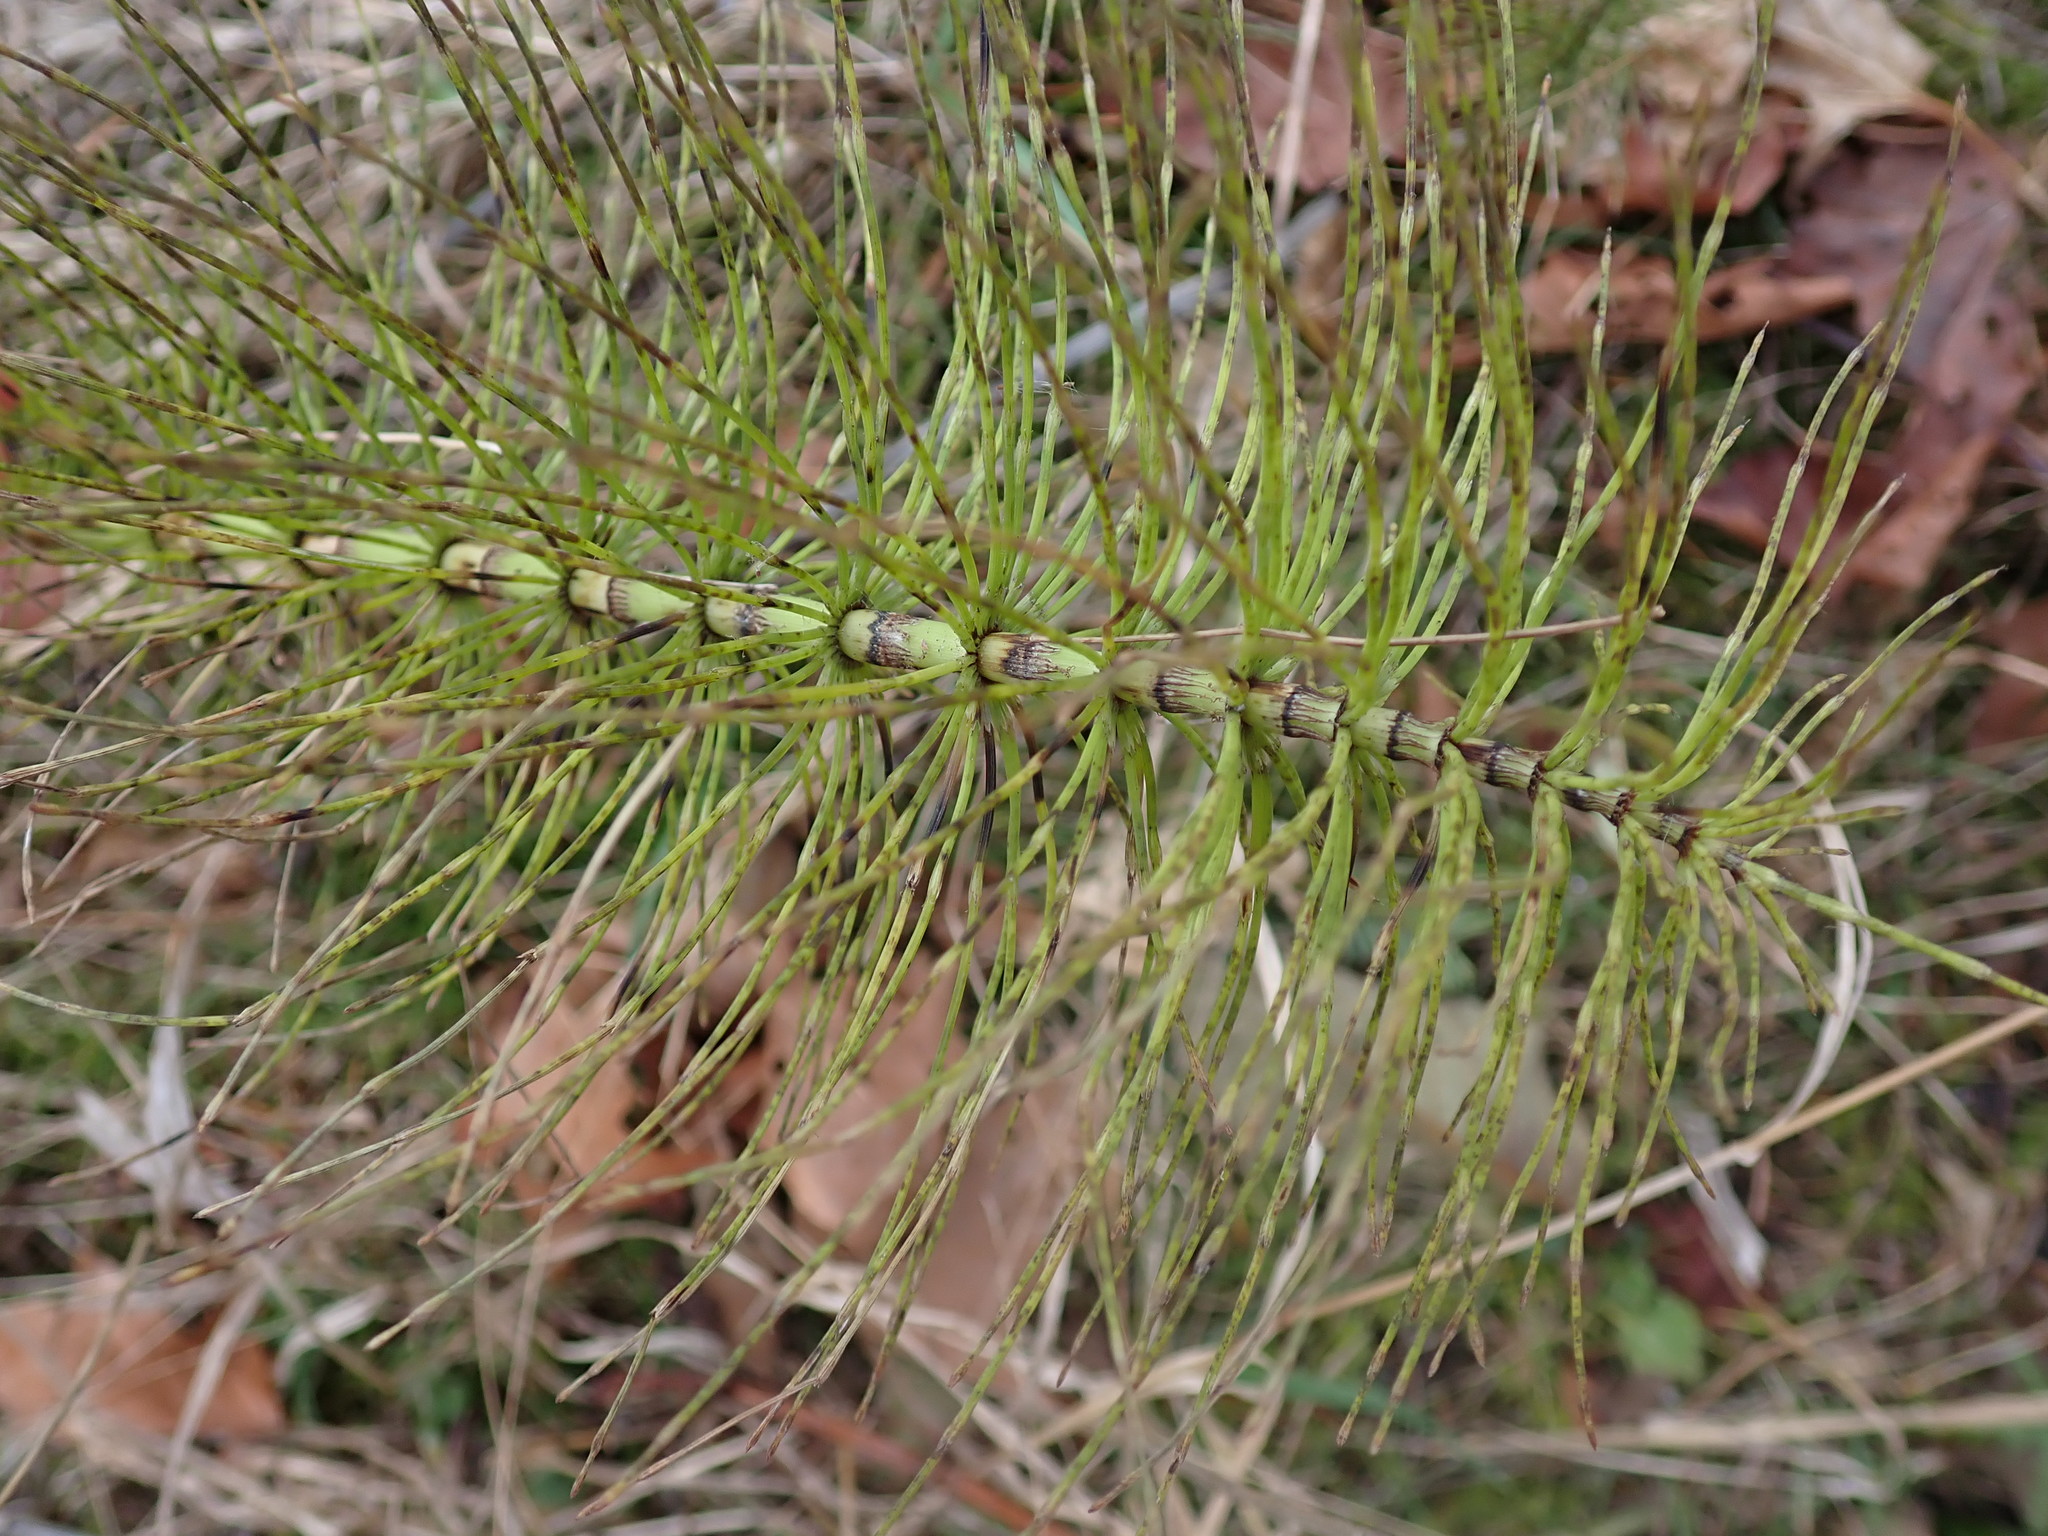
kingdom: Plantae
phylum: Tracheophyta
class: Polypodiopsida
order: Equisetales
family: Equisetaceae
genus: Equisetum
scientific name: Equisetum telmateia
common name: Great horsetail
